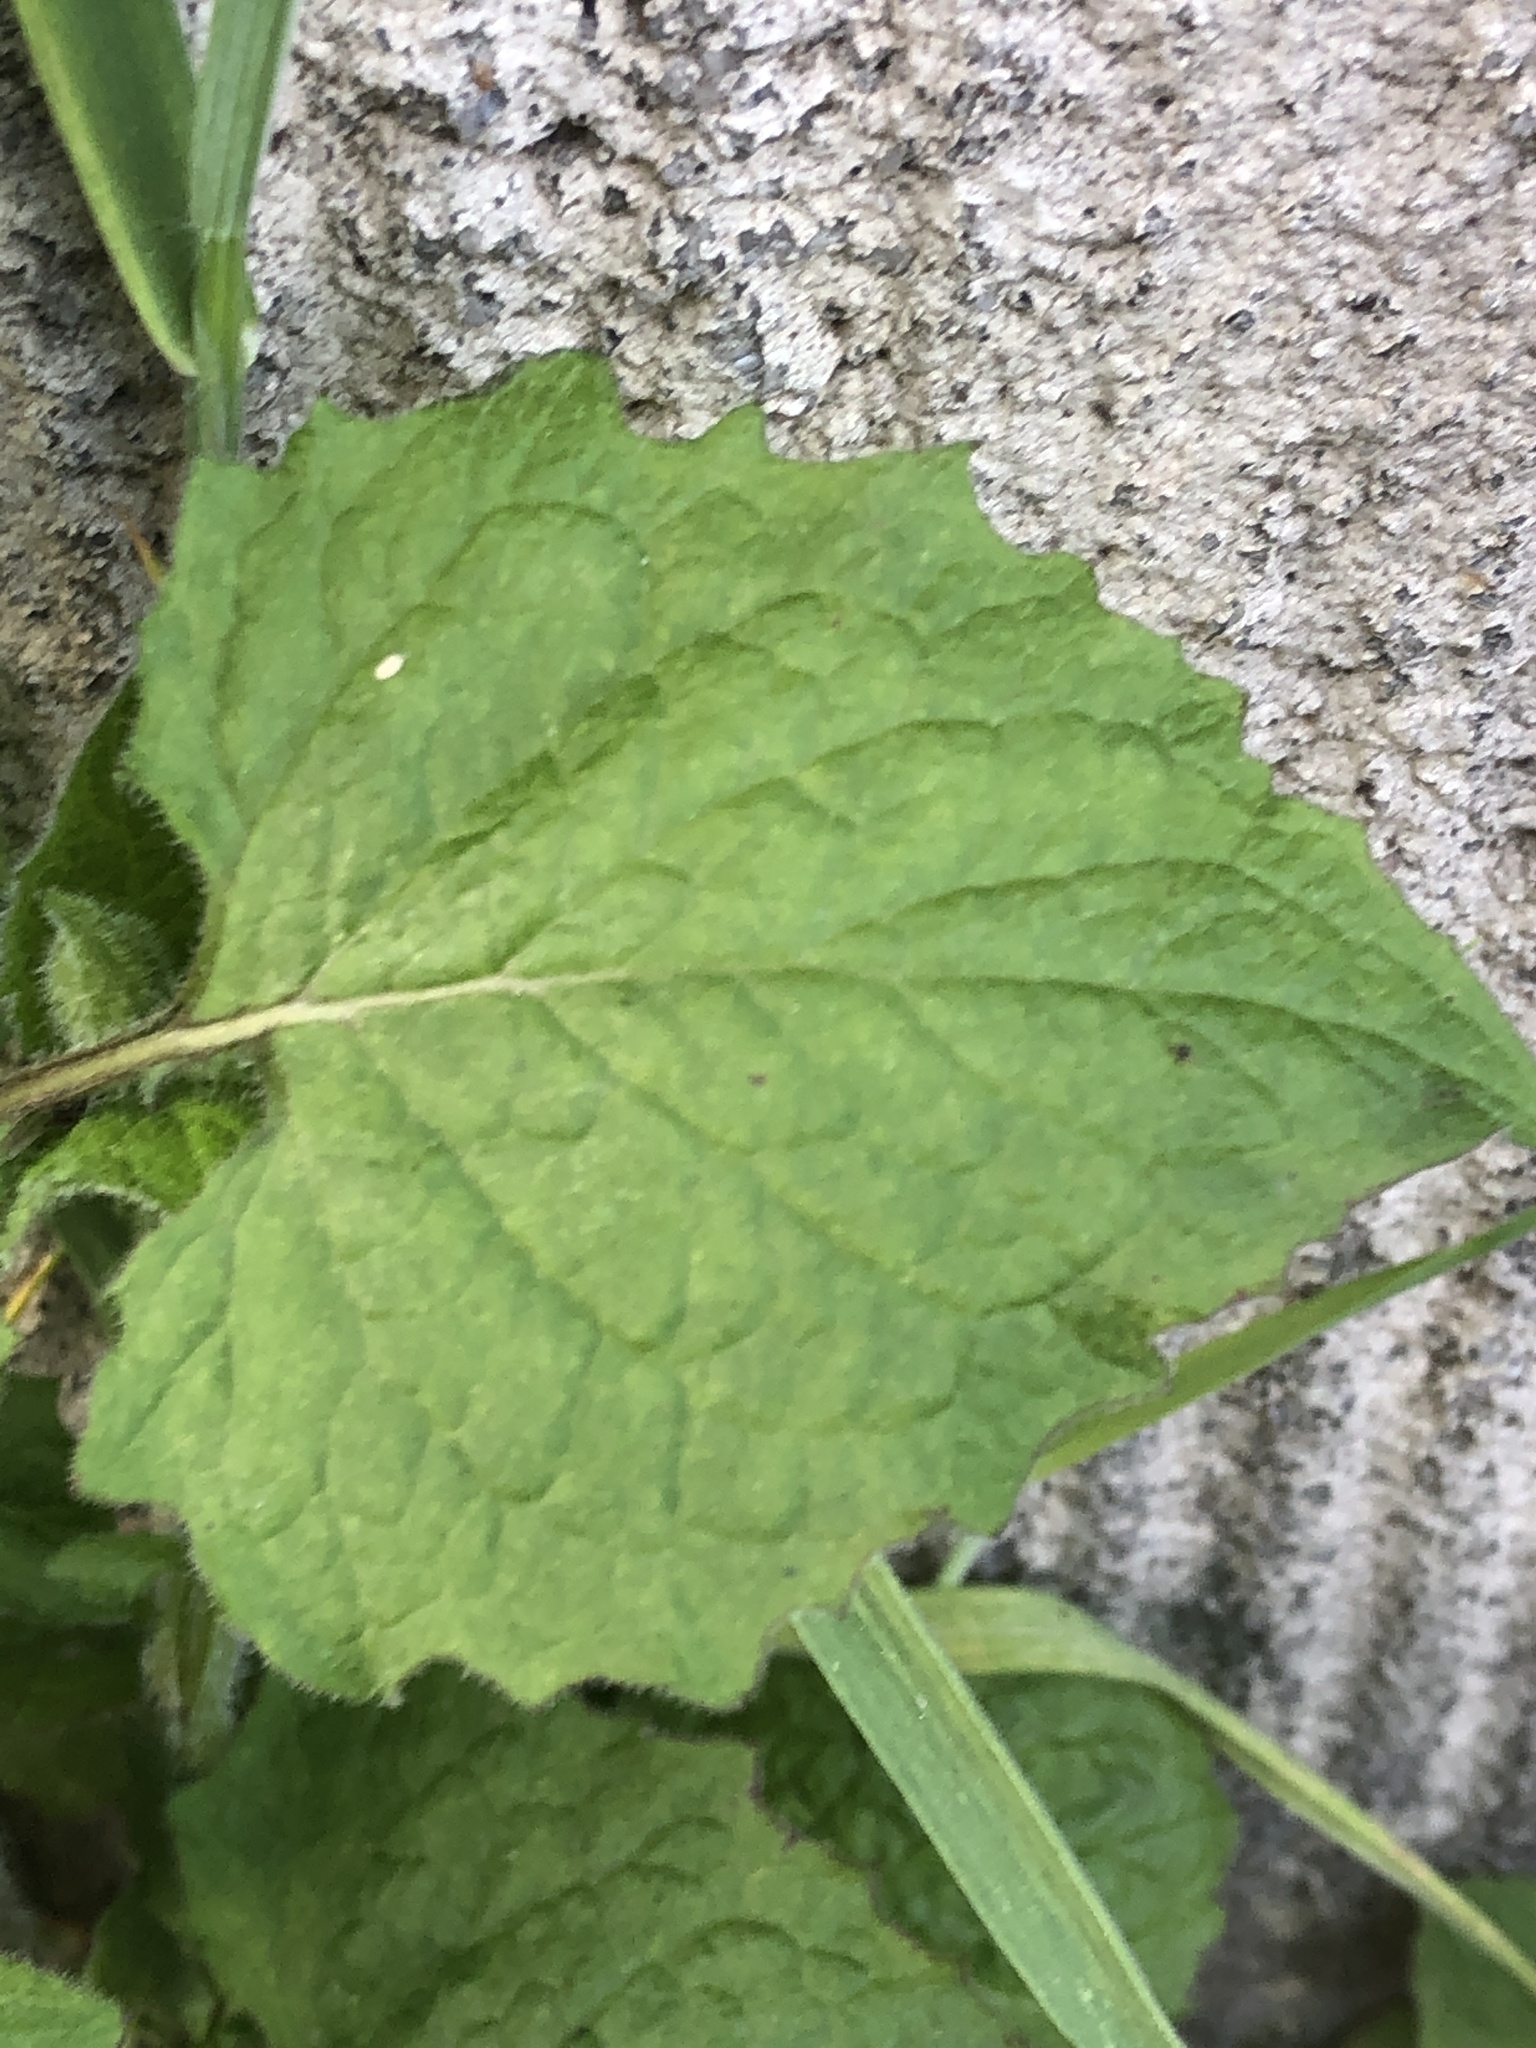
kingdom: Plantae
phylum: Tracheophyta
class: Magnoliopsida
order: Asterales
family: Asteraceae
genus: Lapsana
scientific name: Lapsana communis
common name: Nipplewort
